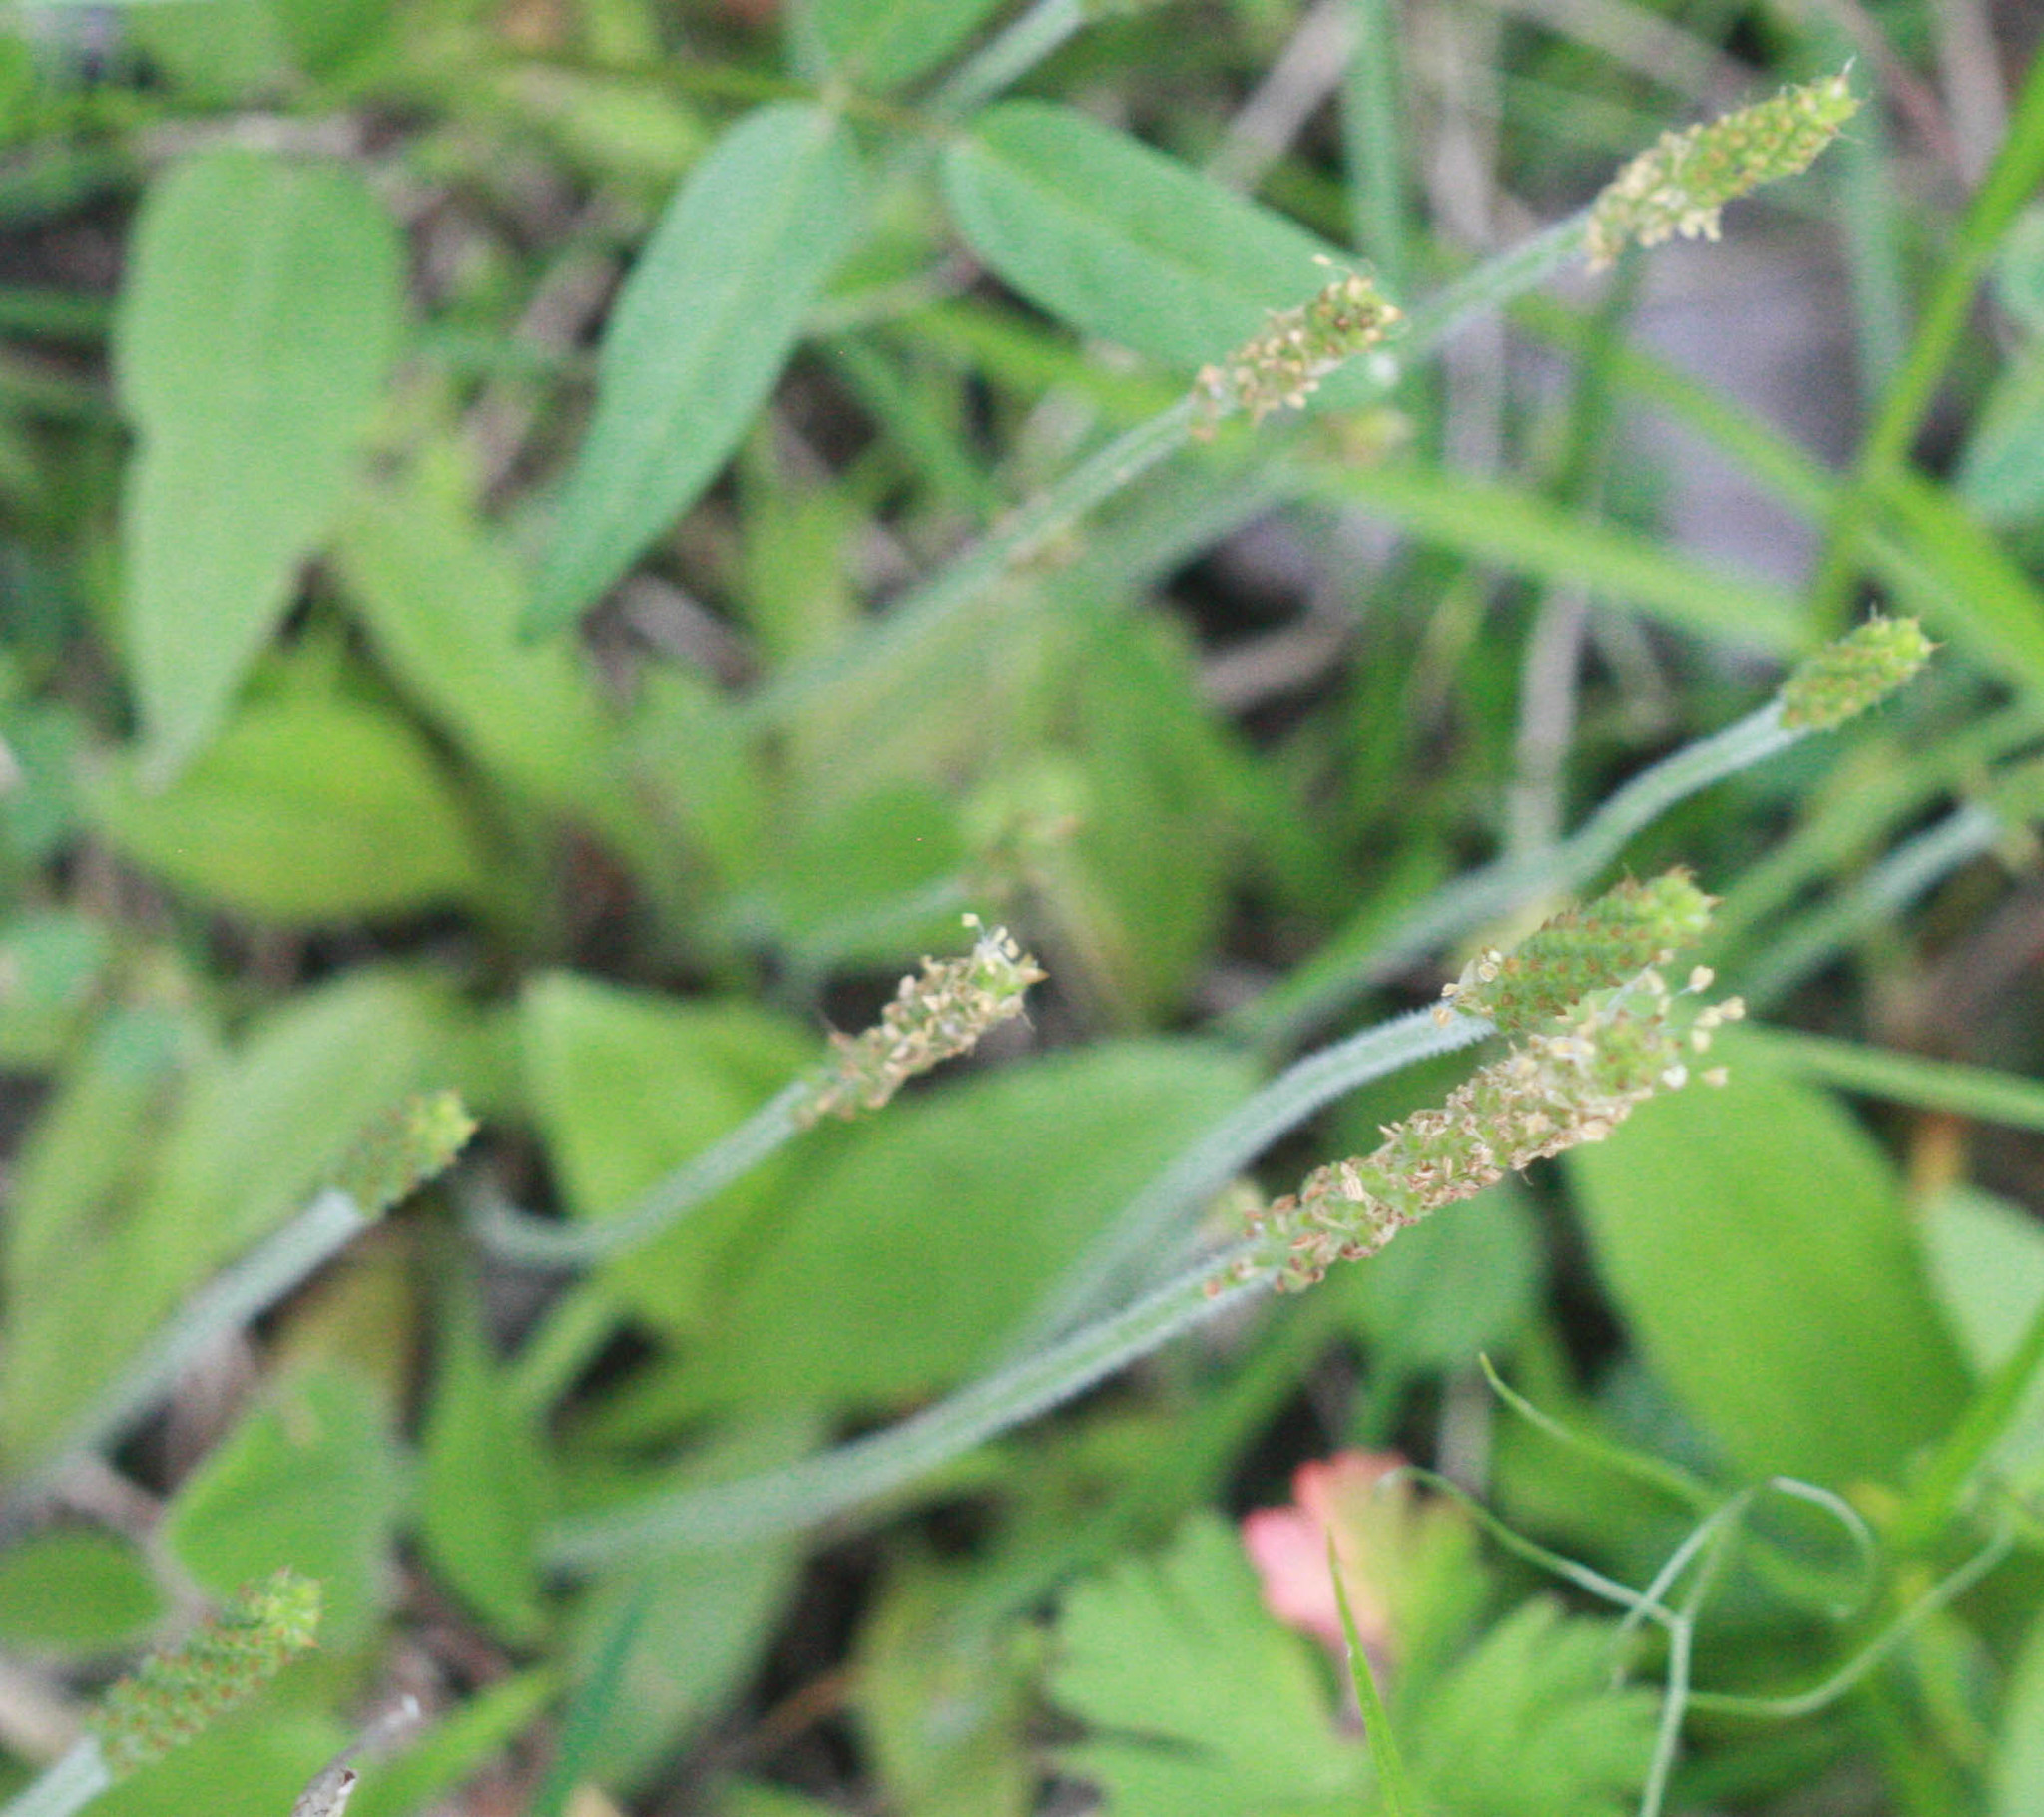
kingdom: Plantae
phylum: Tracheophyta
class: Magnoliopsida
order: Lamiales
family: Plantaginaceae
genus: Plantago
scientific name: Plantago virginica
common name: Hoary plantain
